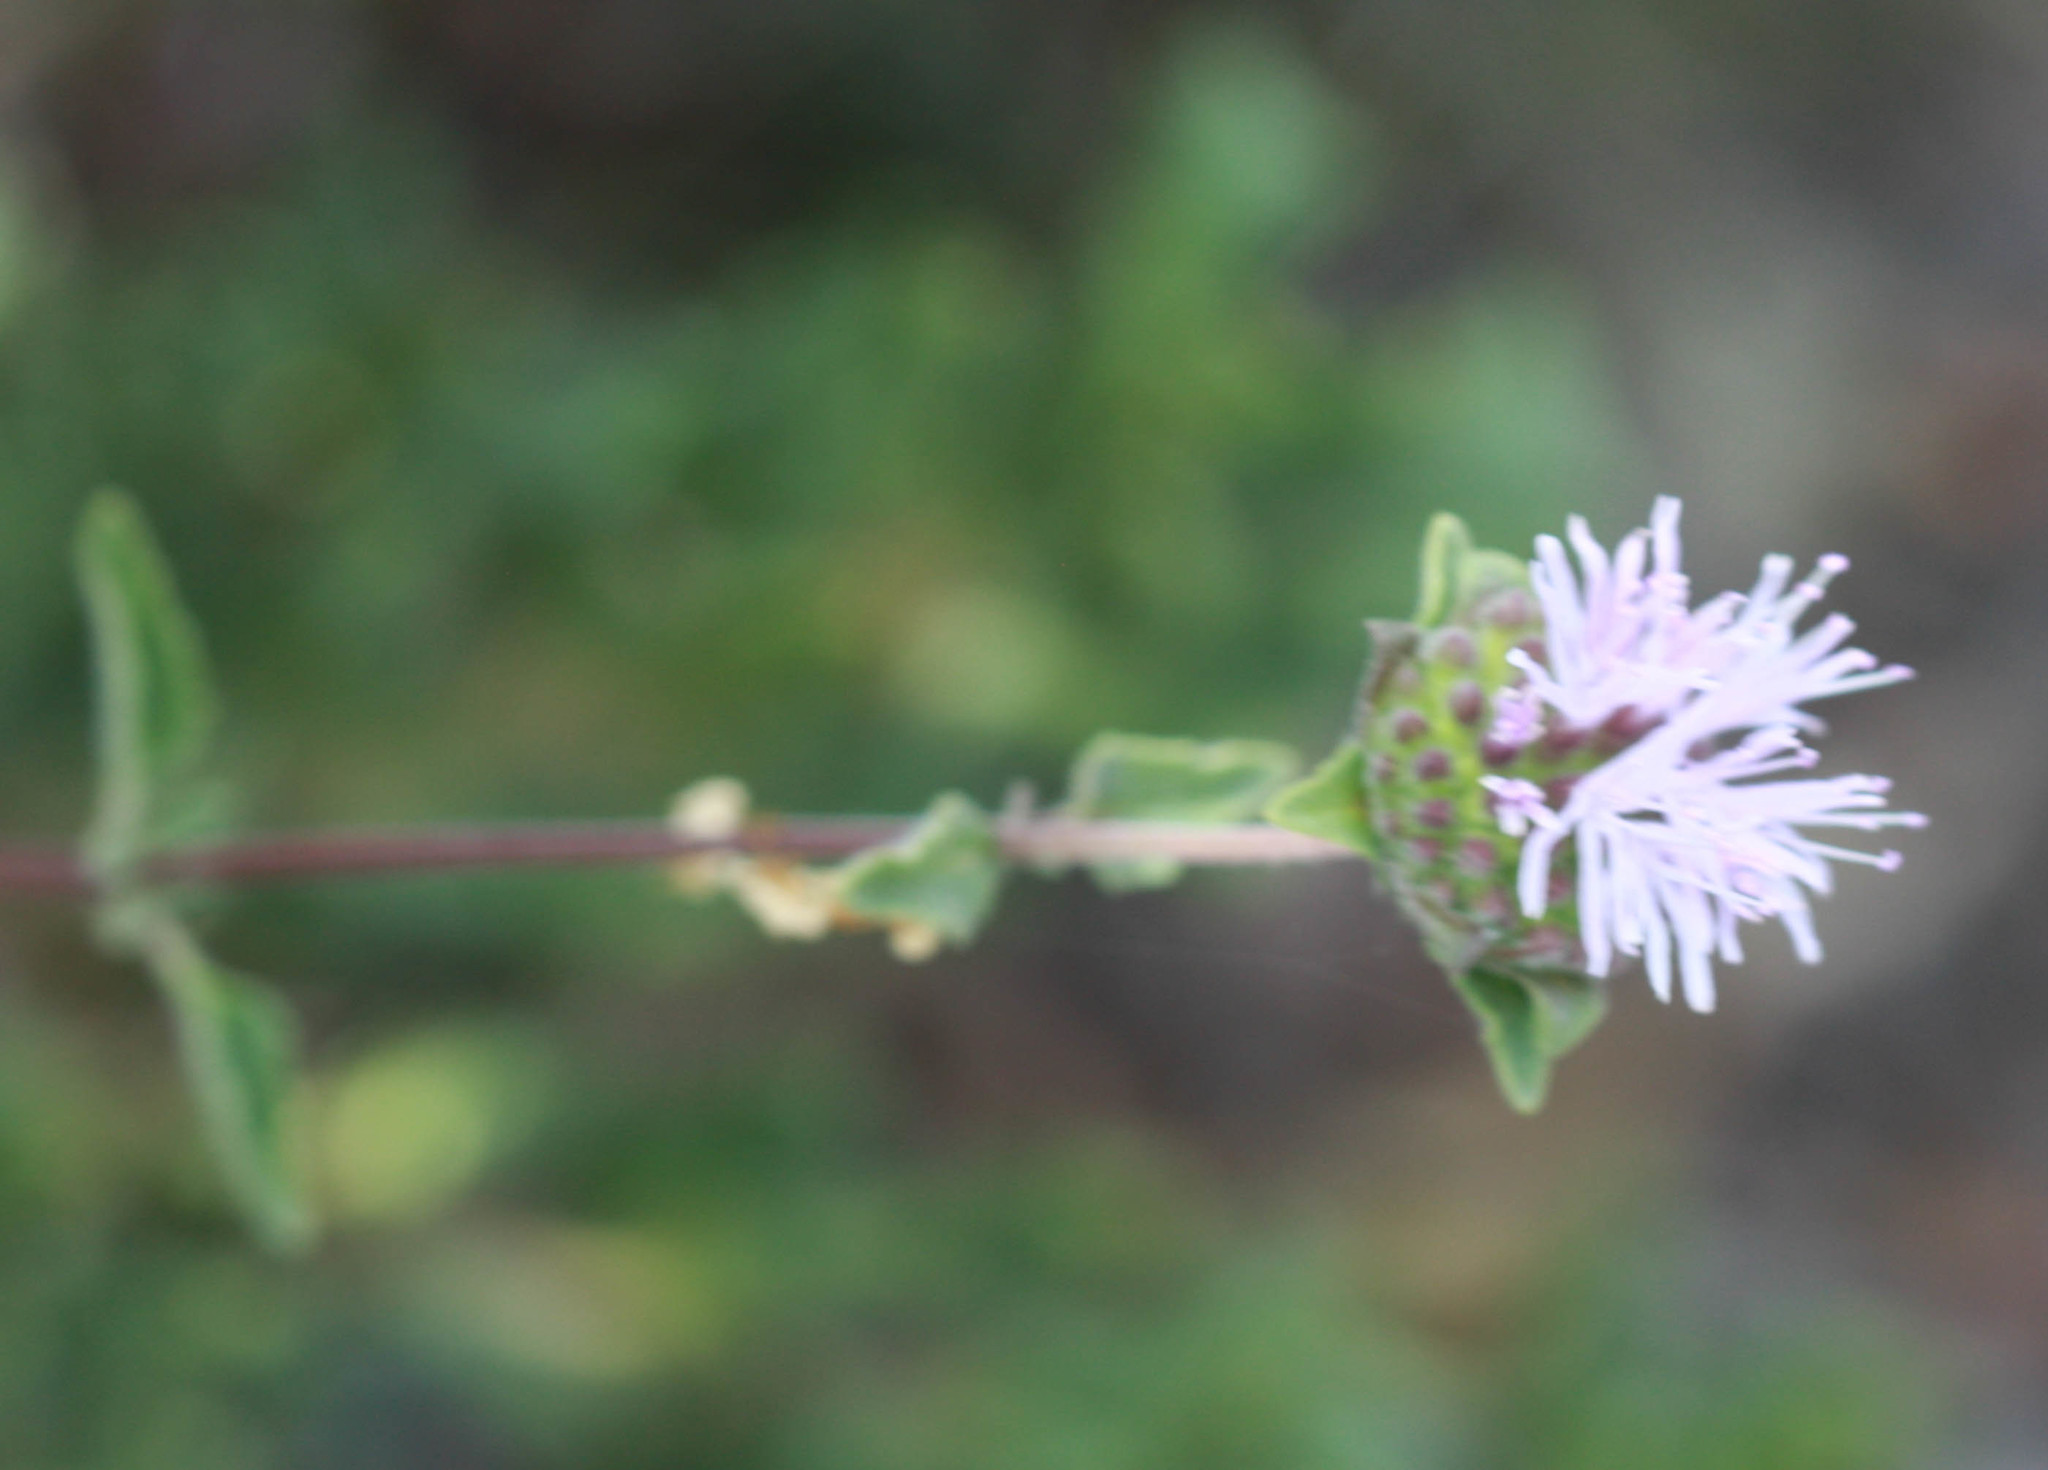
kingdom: Plantae
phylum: Tracheophyta
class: Magnoliopsida
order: Lamiales
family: Lamiaceae
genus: Monardella
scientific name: Monardella odoratissima
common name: Pacific monardella
